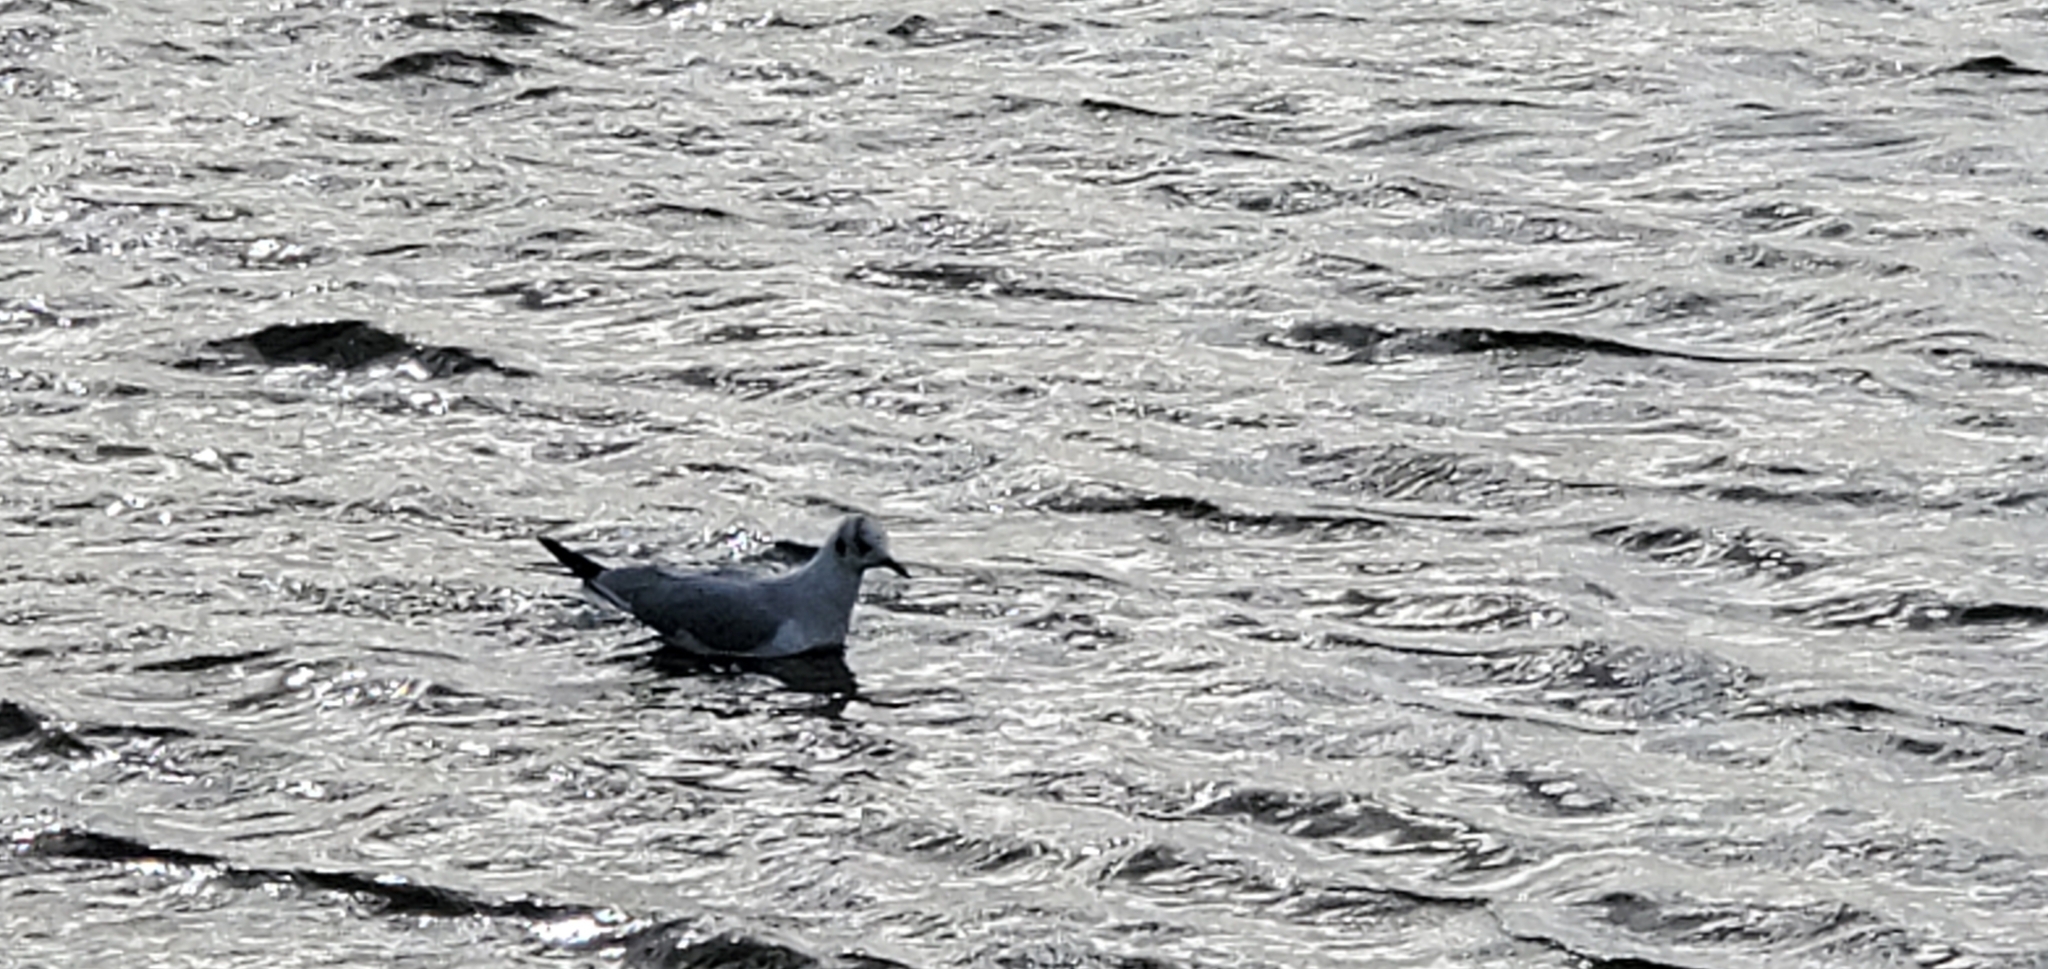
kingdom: Animalia
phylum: Chordata
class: Aves
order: Charadriiformes
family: Laridae
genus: Chroicocephalus
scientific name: Chroicocephalus ridibundus
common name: Black-headed gull
